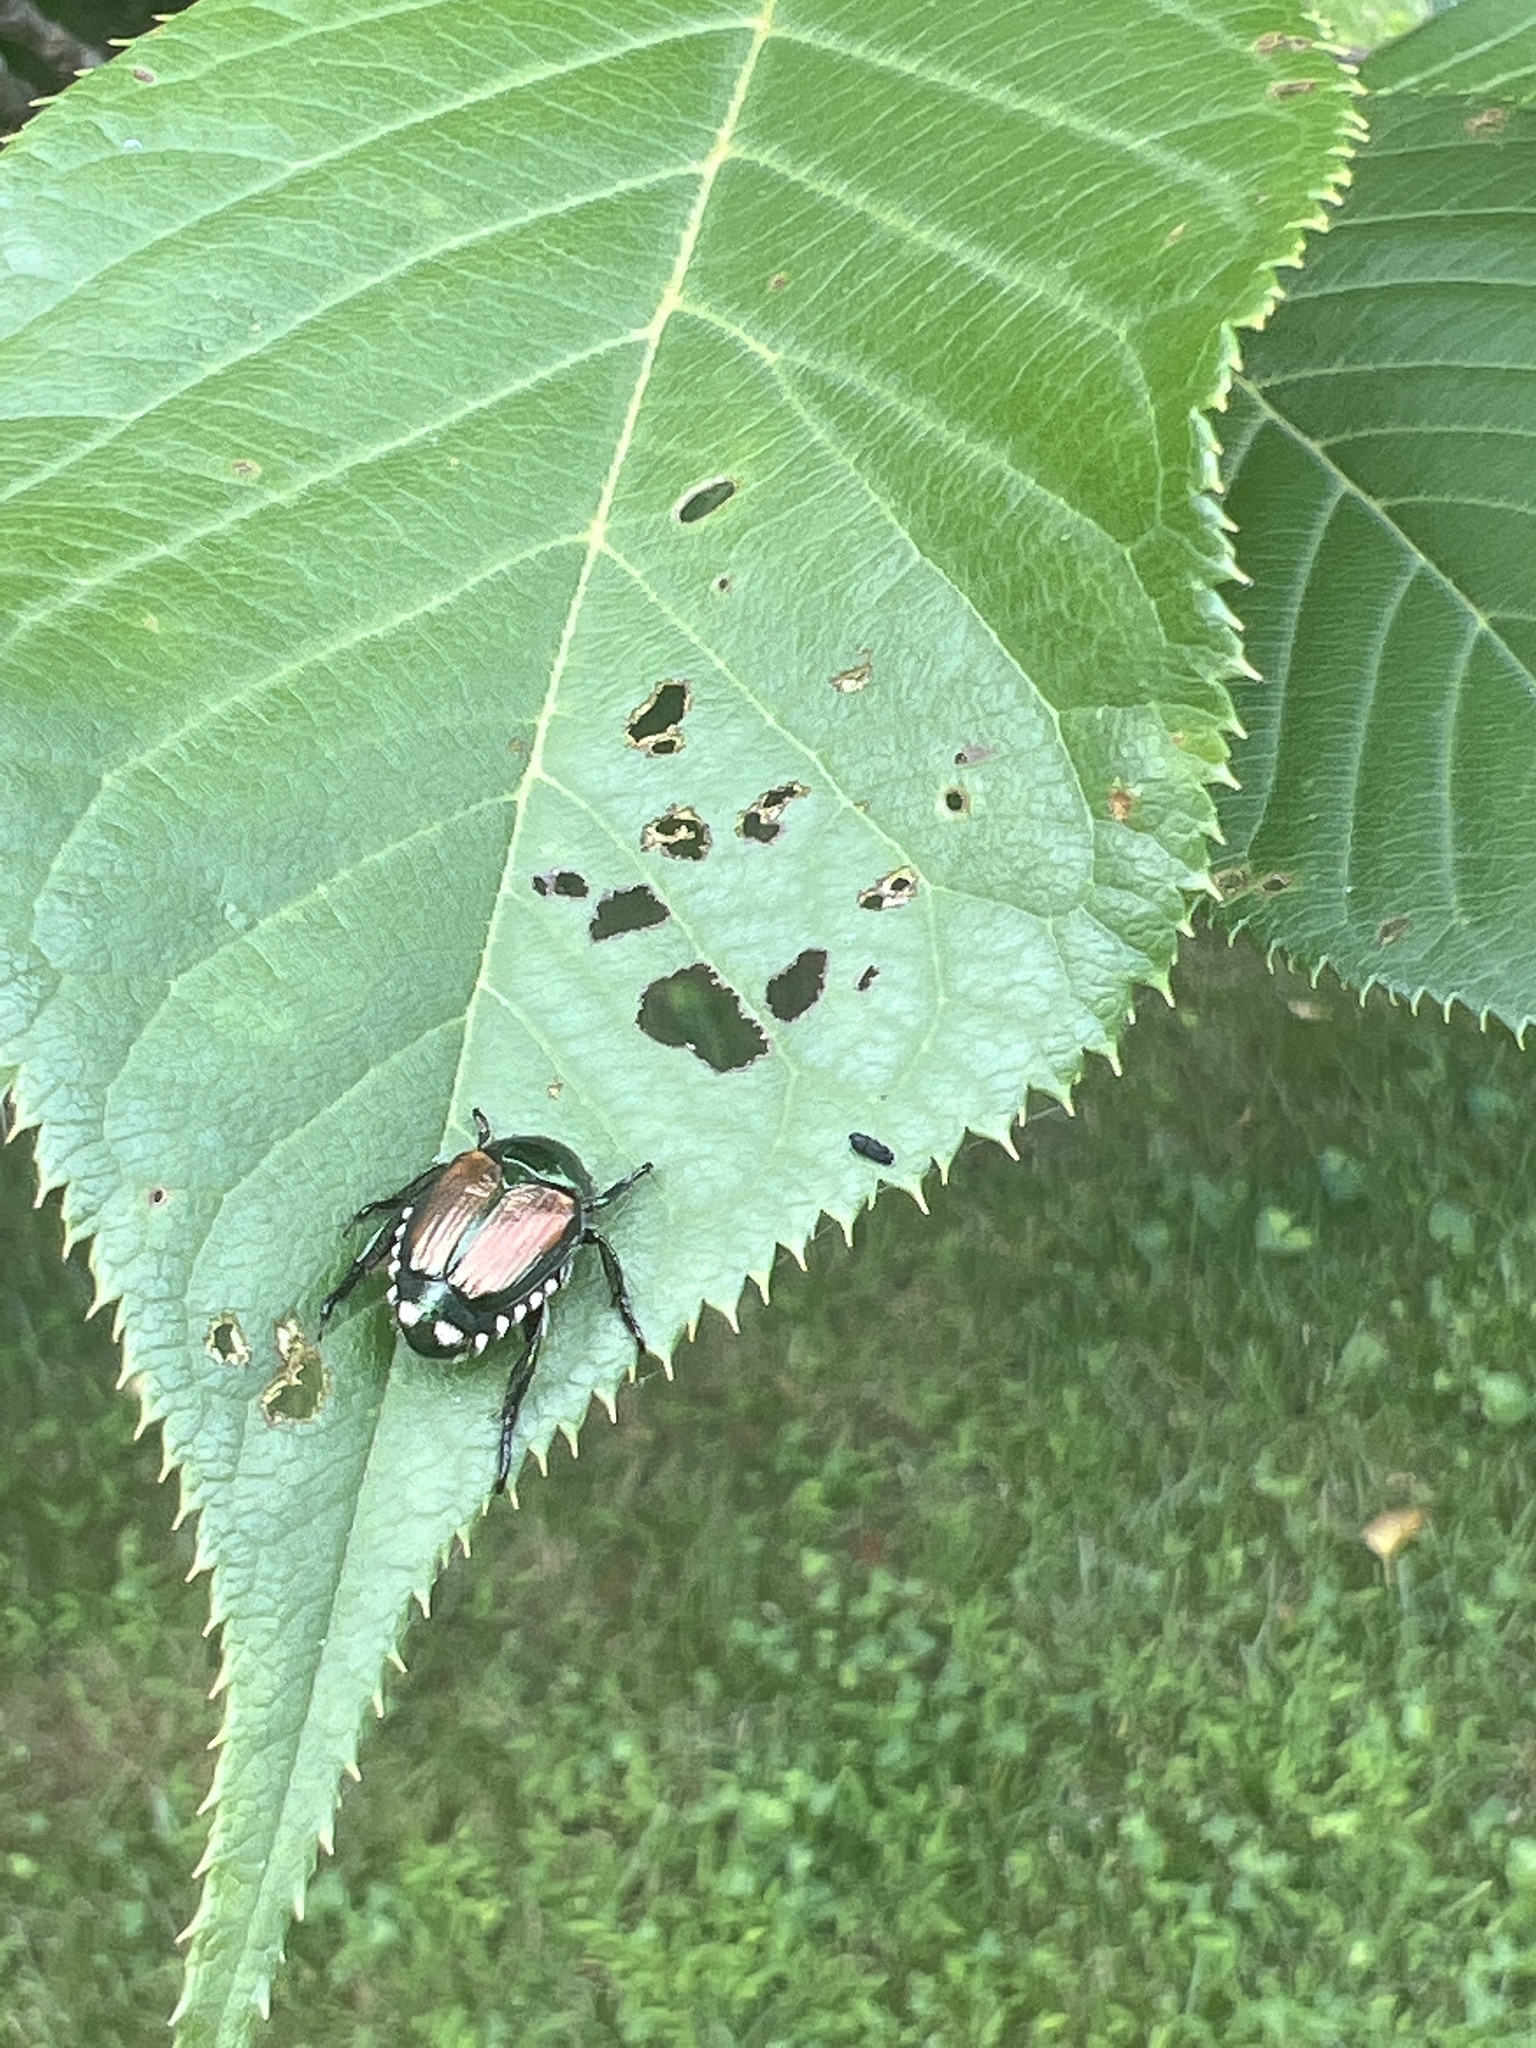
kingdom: Animalia
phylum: Arthropoda
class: Insecta
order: Coleoptera
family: Scarabaeidae
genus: Popillia
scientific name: Popillia japonica
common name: Japanese beetle
